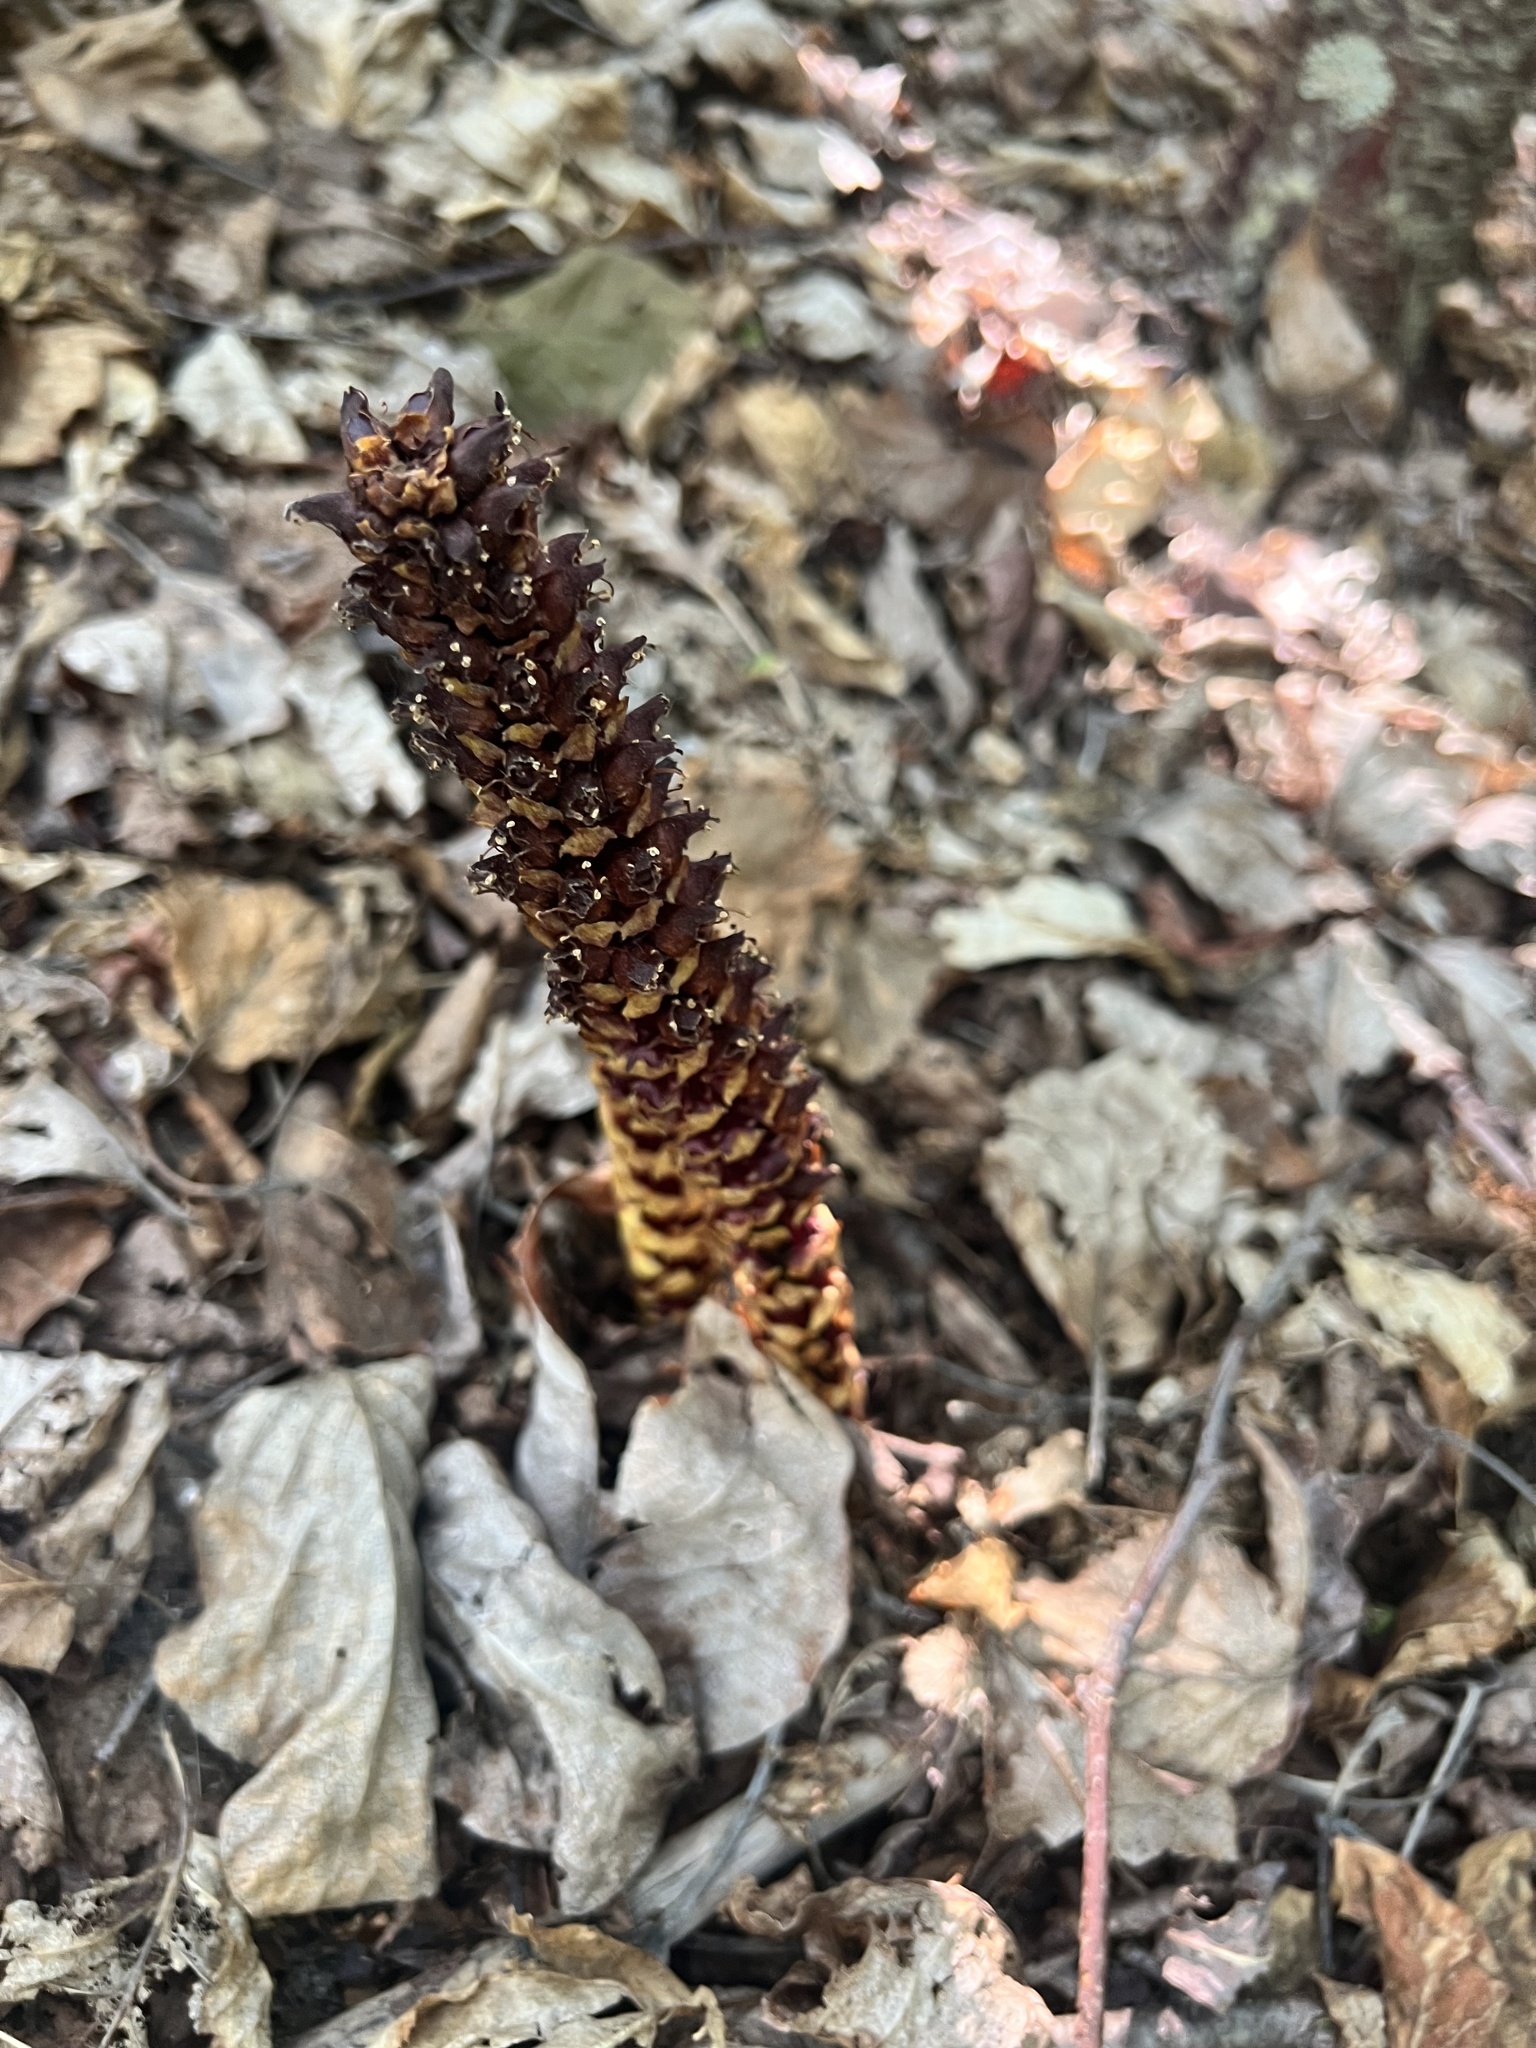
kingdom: Plantae
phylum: Tracheophyta
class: Magnoliopsida
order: Lamiales
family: Orobanchaceae
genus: Boschniakia
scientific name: Boschniakia rossica
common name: Poque
